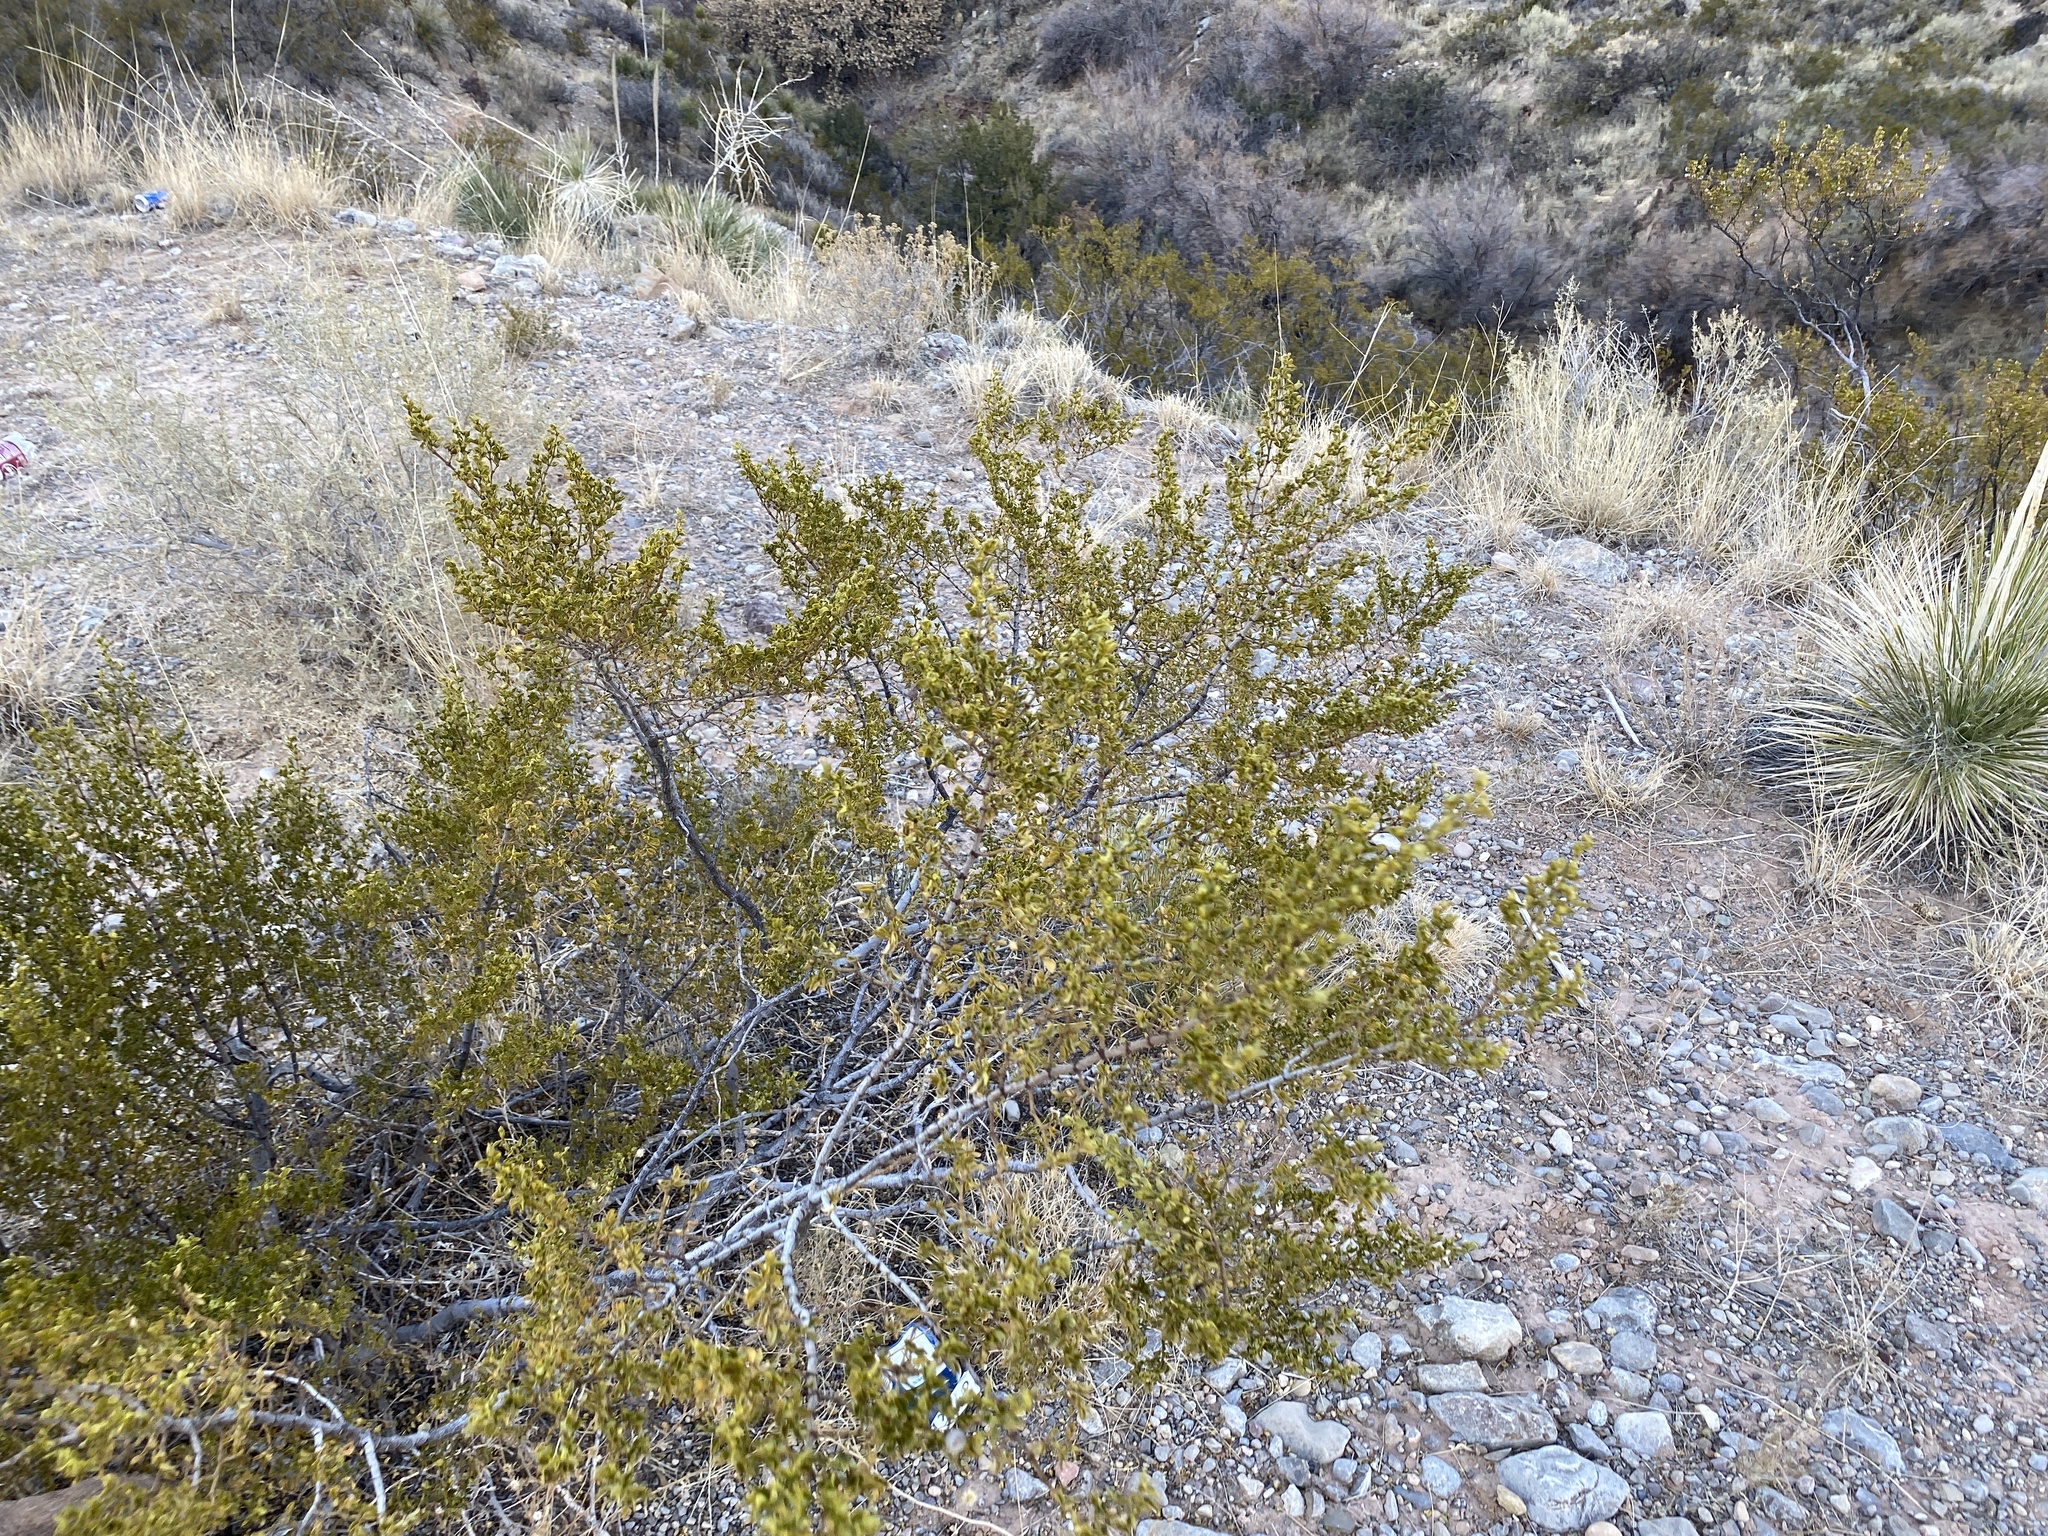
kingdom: Plantae
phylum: Tracheophyta
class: Magnoliopsida
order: Zygophyllales
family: Zygophyllaceae
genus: Larrea
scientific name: Larrea tridentata
